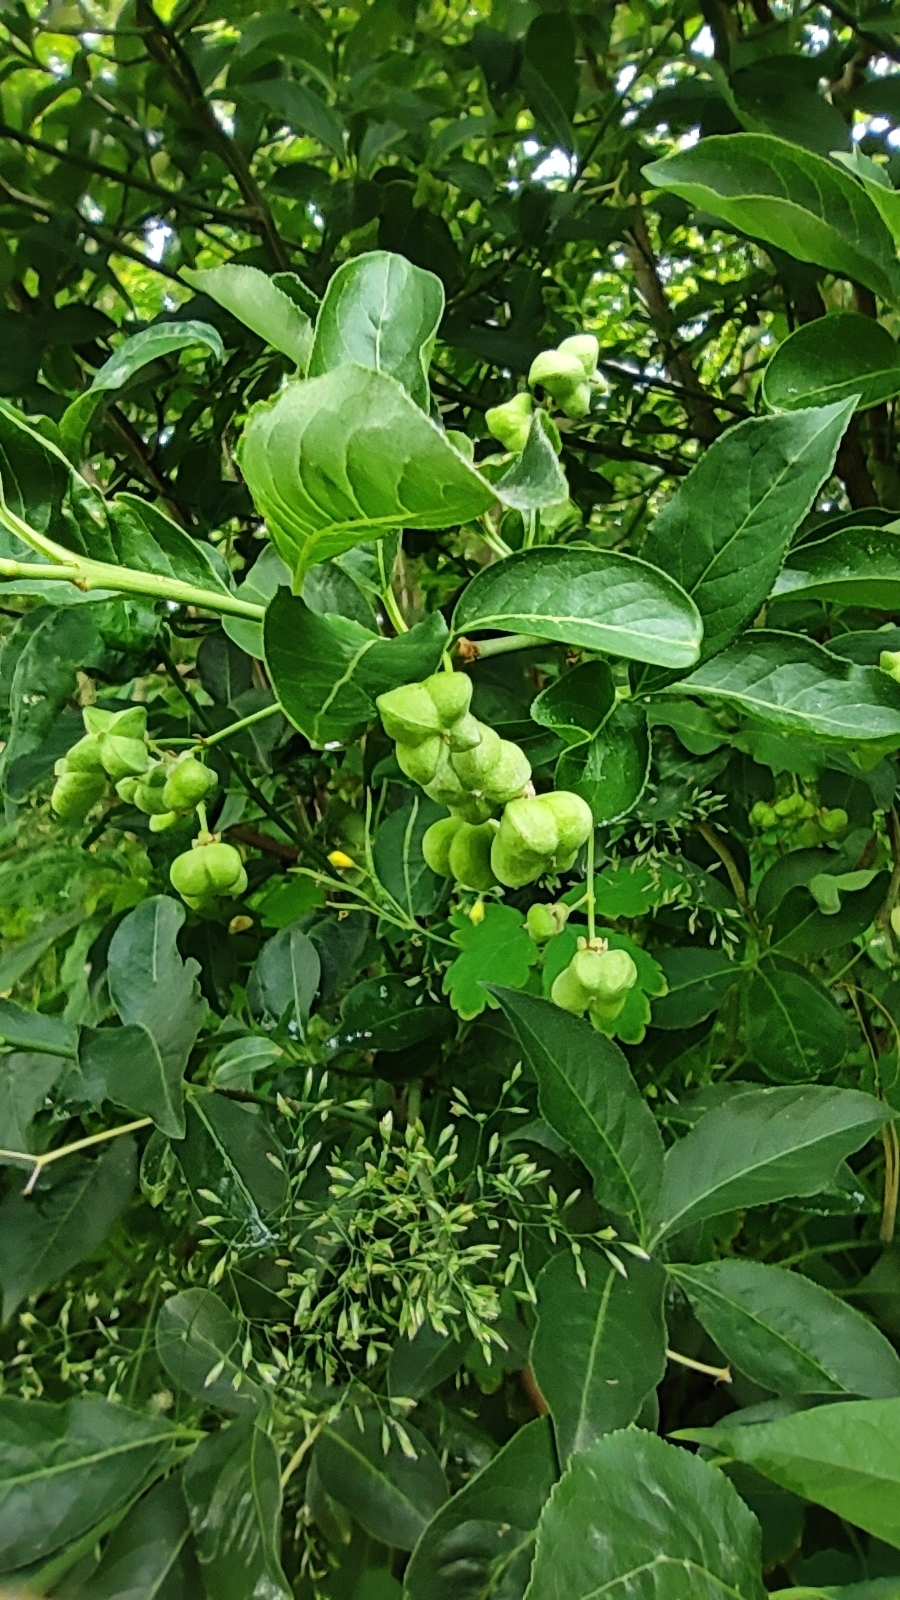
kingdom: Plantae
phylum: Tracheophyta
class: Magnoliopsida
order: Celastrales
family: Celastraceae
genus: Euonymus
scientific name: Euonymus europaeus
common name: Spindle
